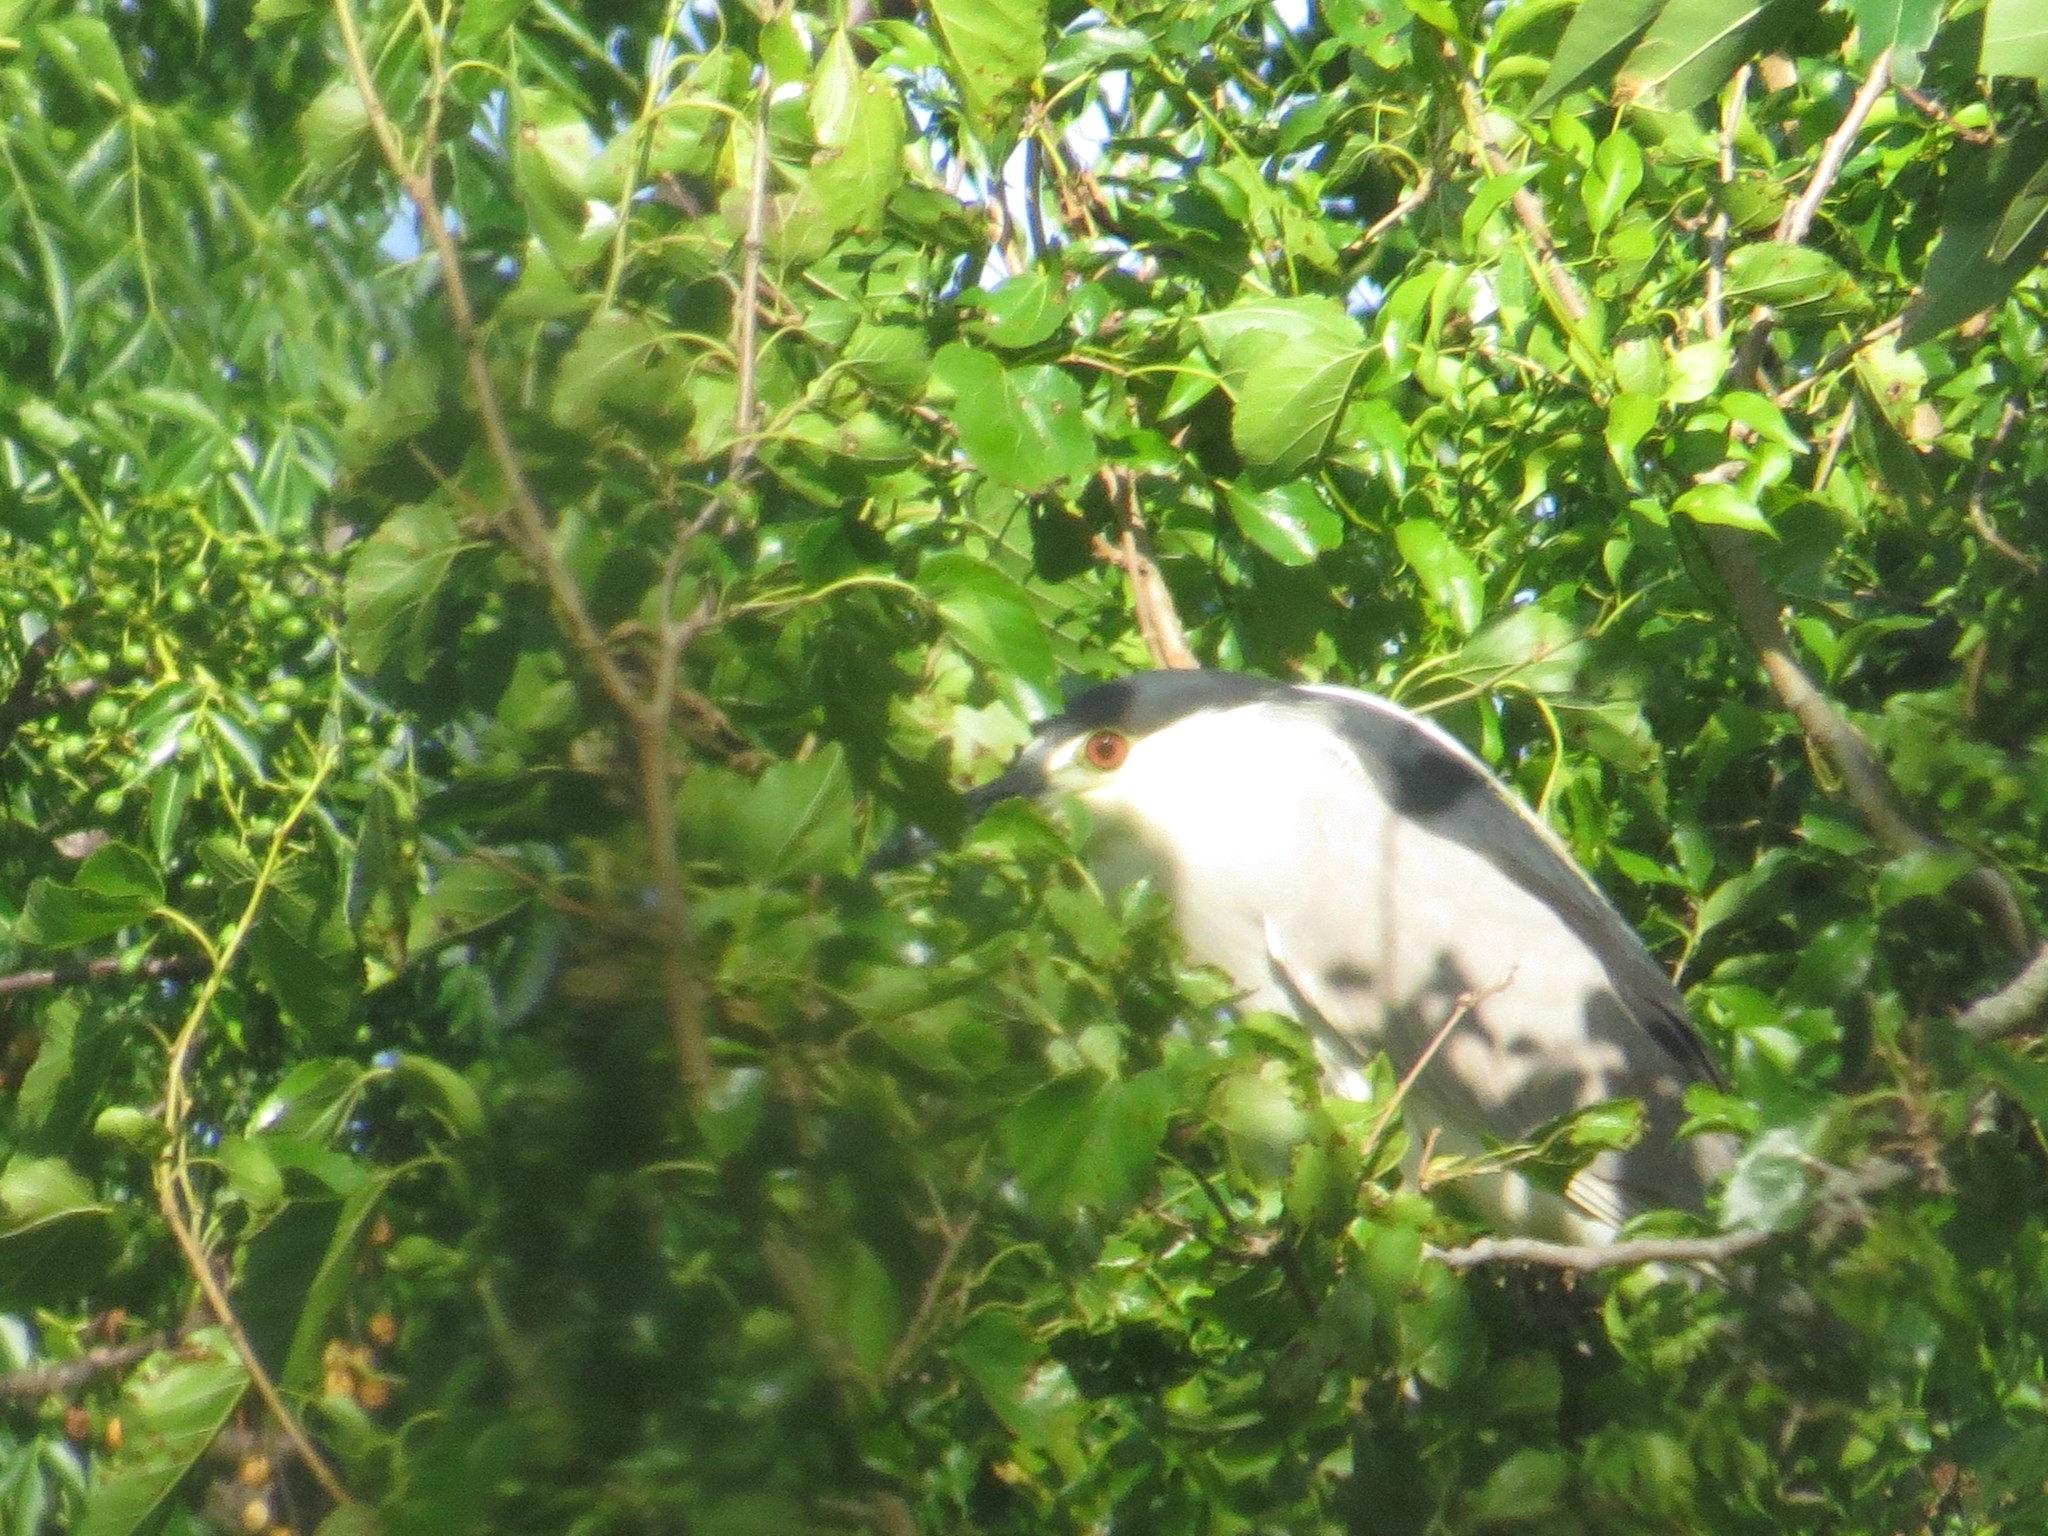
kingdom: Animalia
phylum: Chordata
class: Aves
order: Pelecaniformes
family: Ardeidae
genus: Nycticorax
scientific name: Nycticorax nycticorax
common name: Black-crowned night heron
